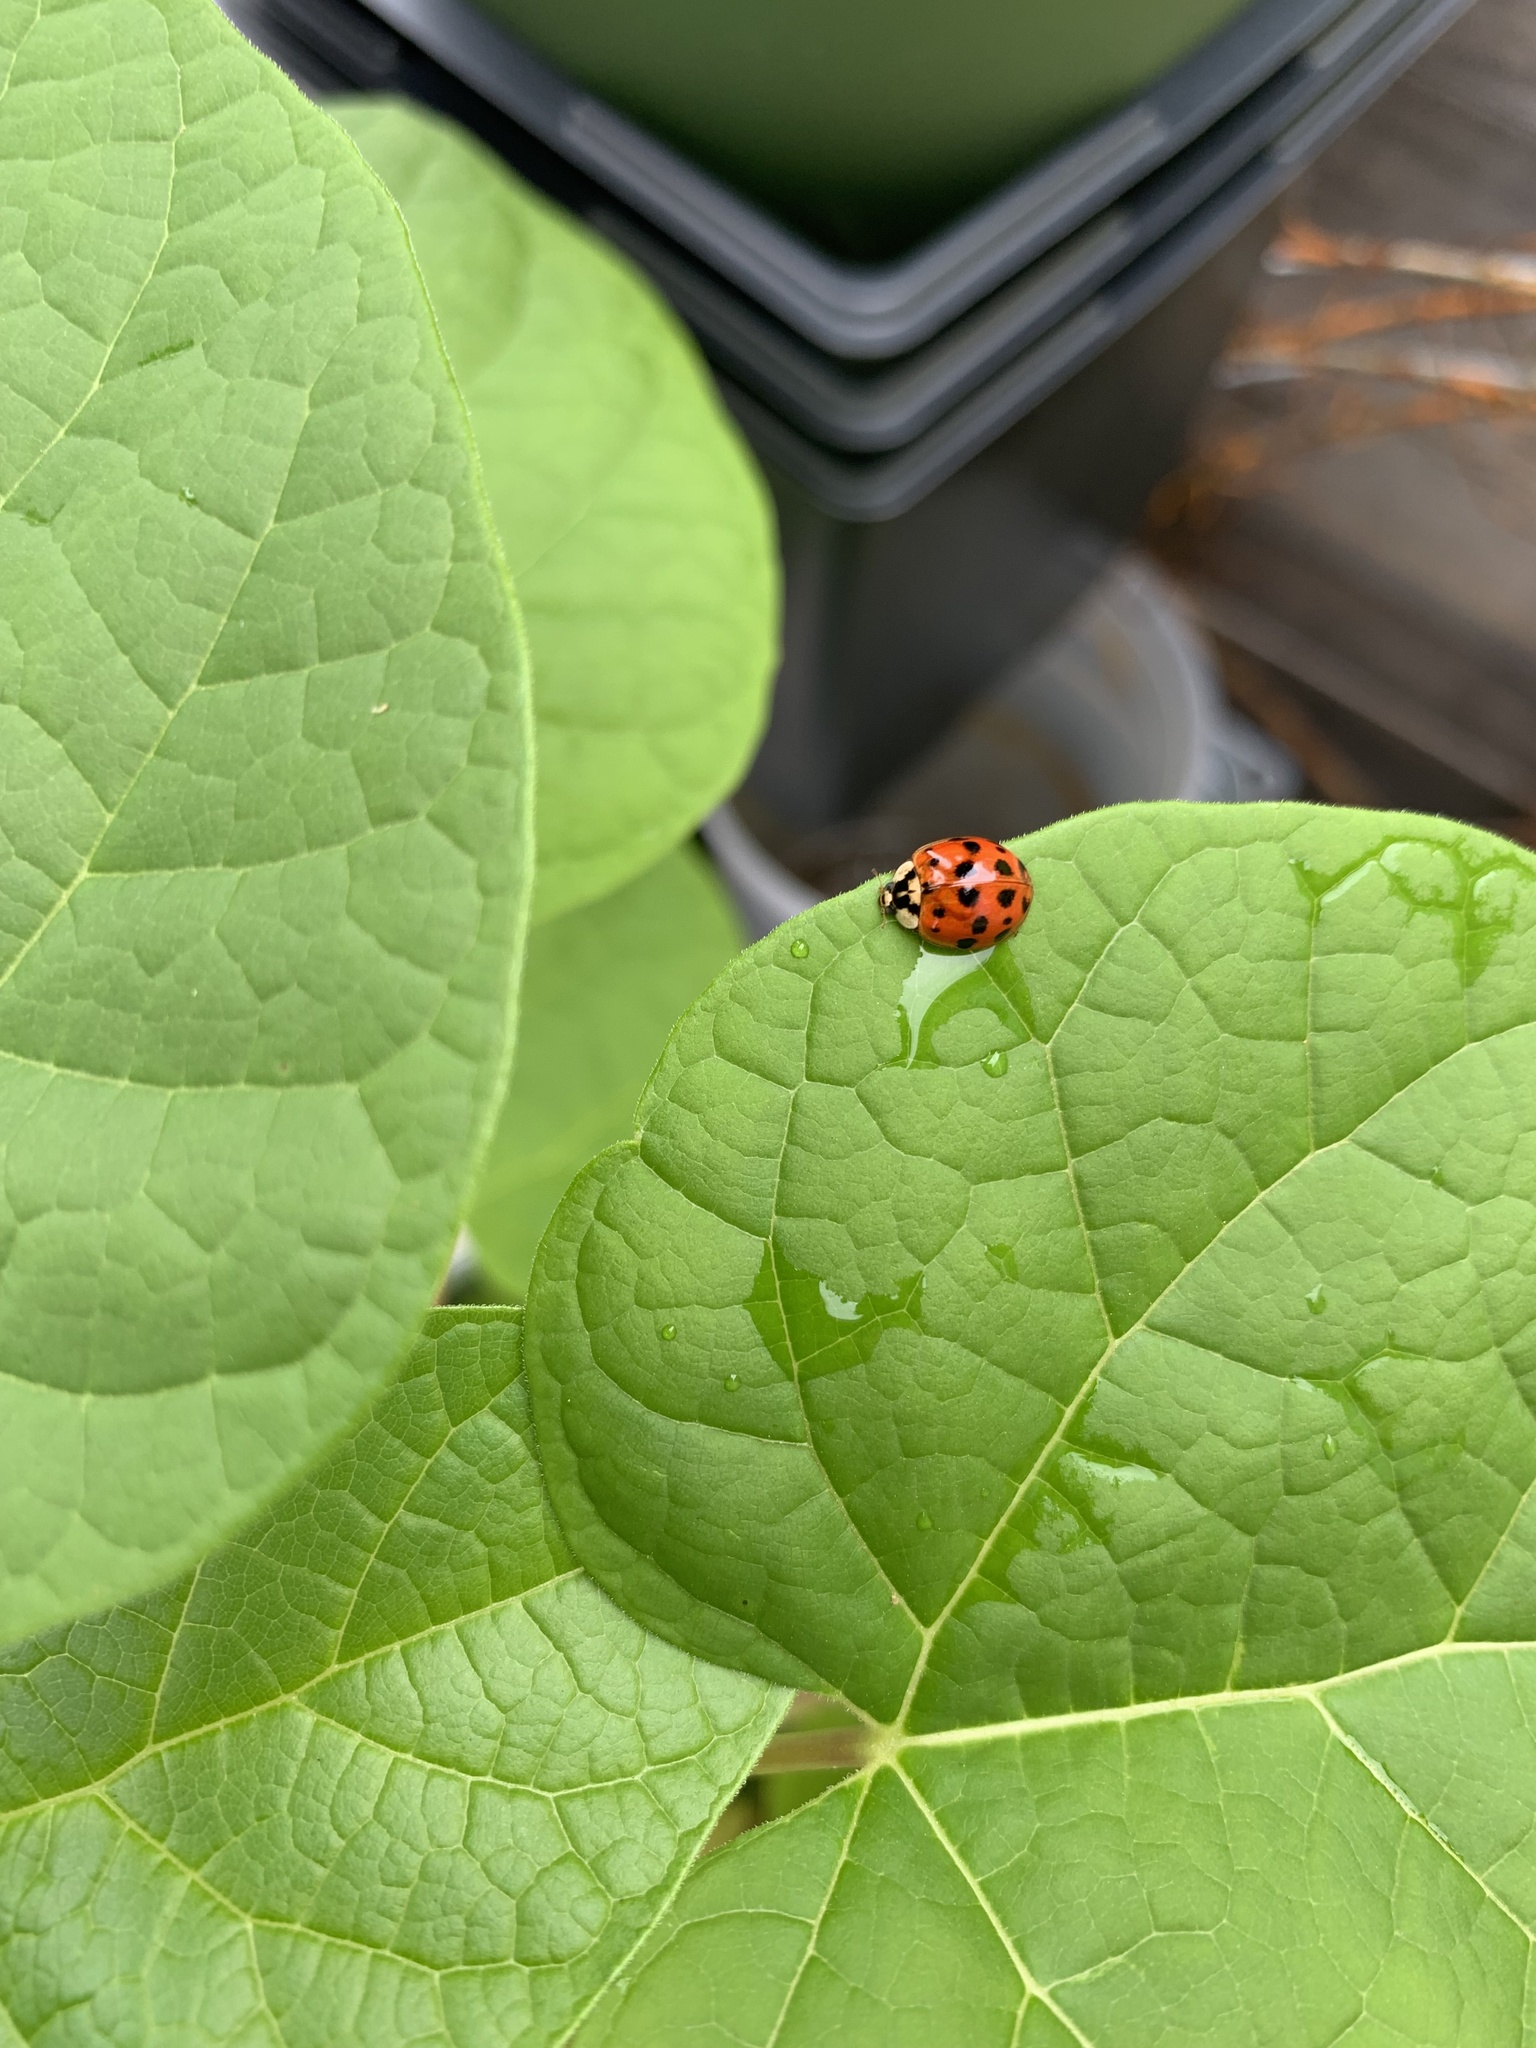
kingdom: Animalia
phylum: Arthropoda
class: Insecta
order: Coleoptera
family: Coccinellidae
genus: Harmonia
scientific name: Harmonia axyridis
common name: Harlequin ladybird
